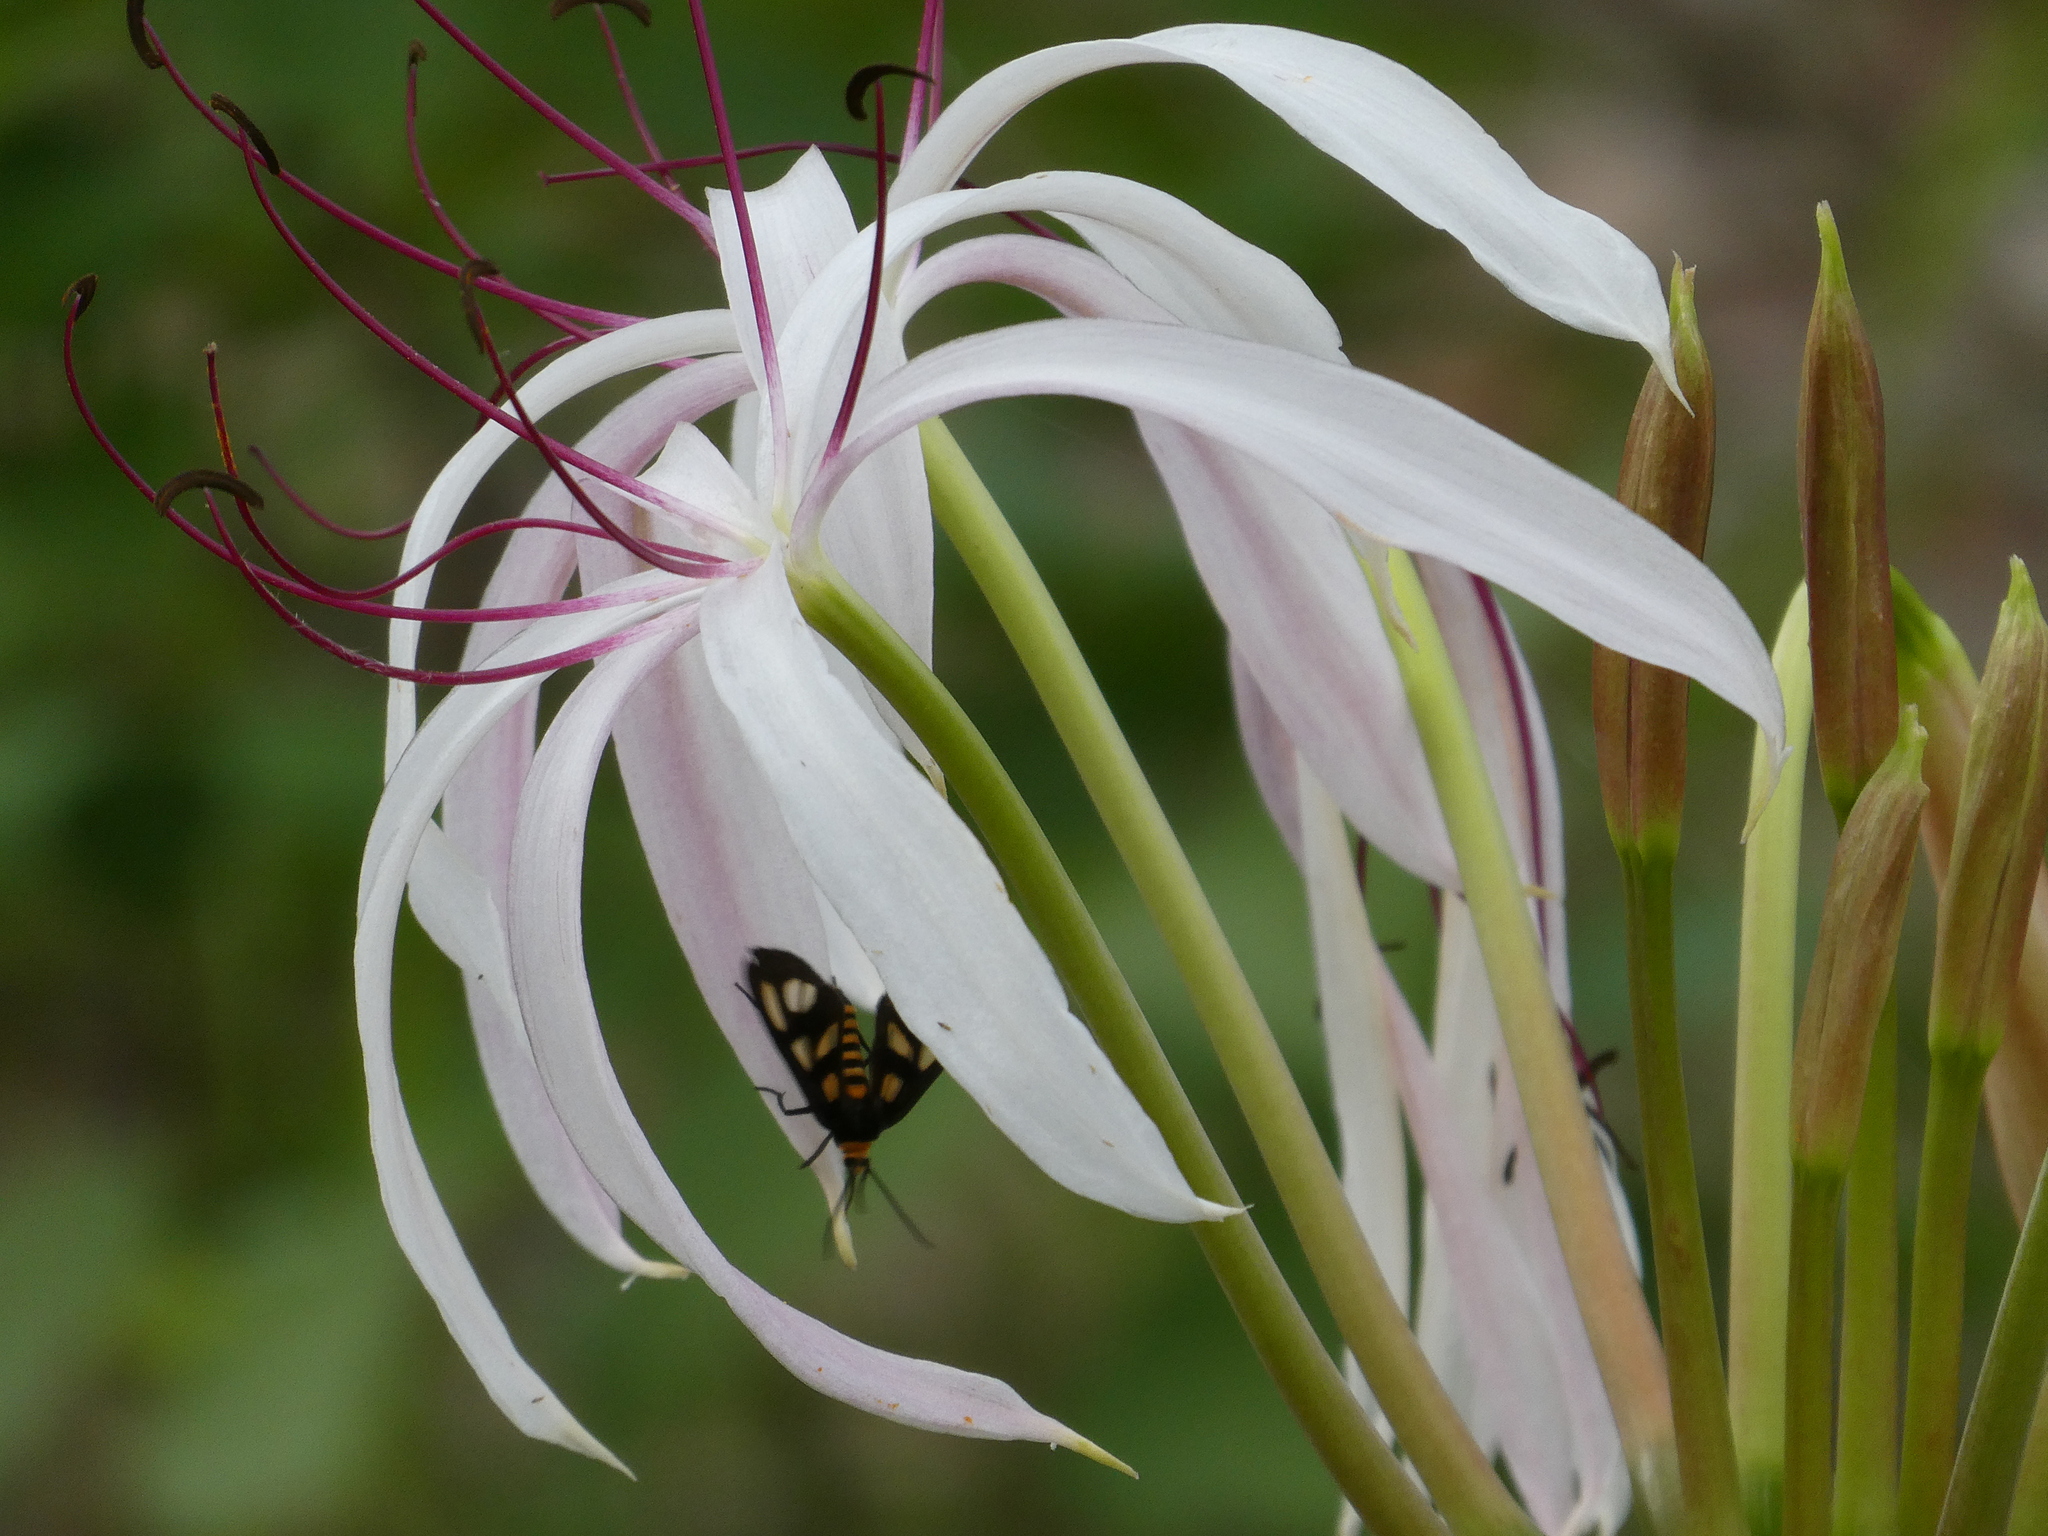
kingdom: Plantae
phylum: Tracheophyta
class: Liliopsida
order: Asparagales
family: Amaryllidaceae
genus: Crinum
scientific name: Crinum arenarium
